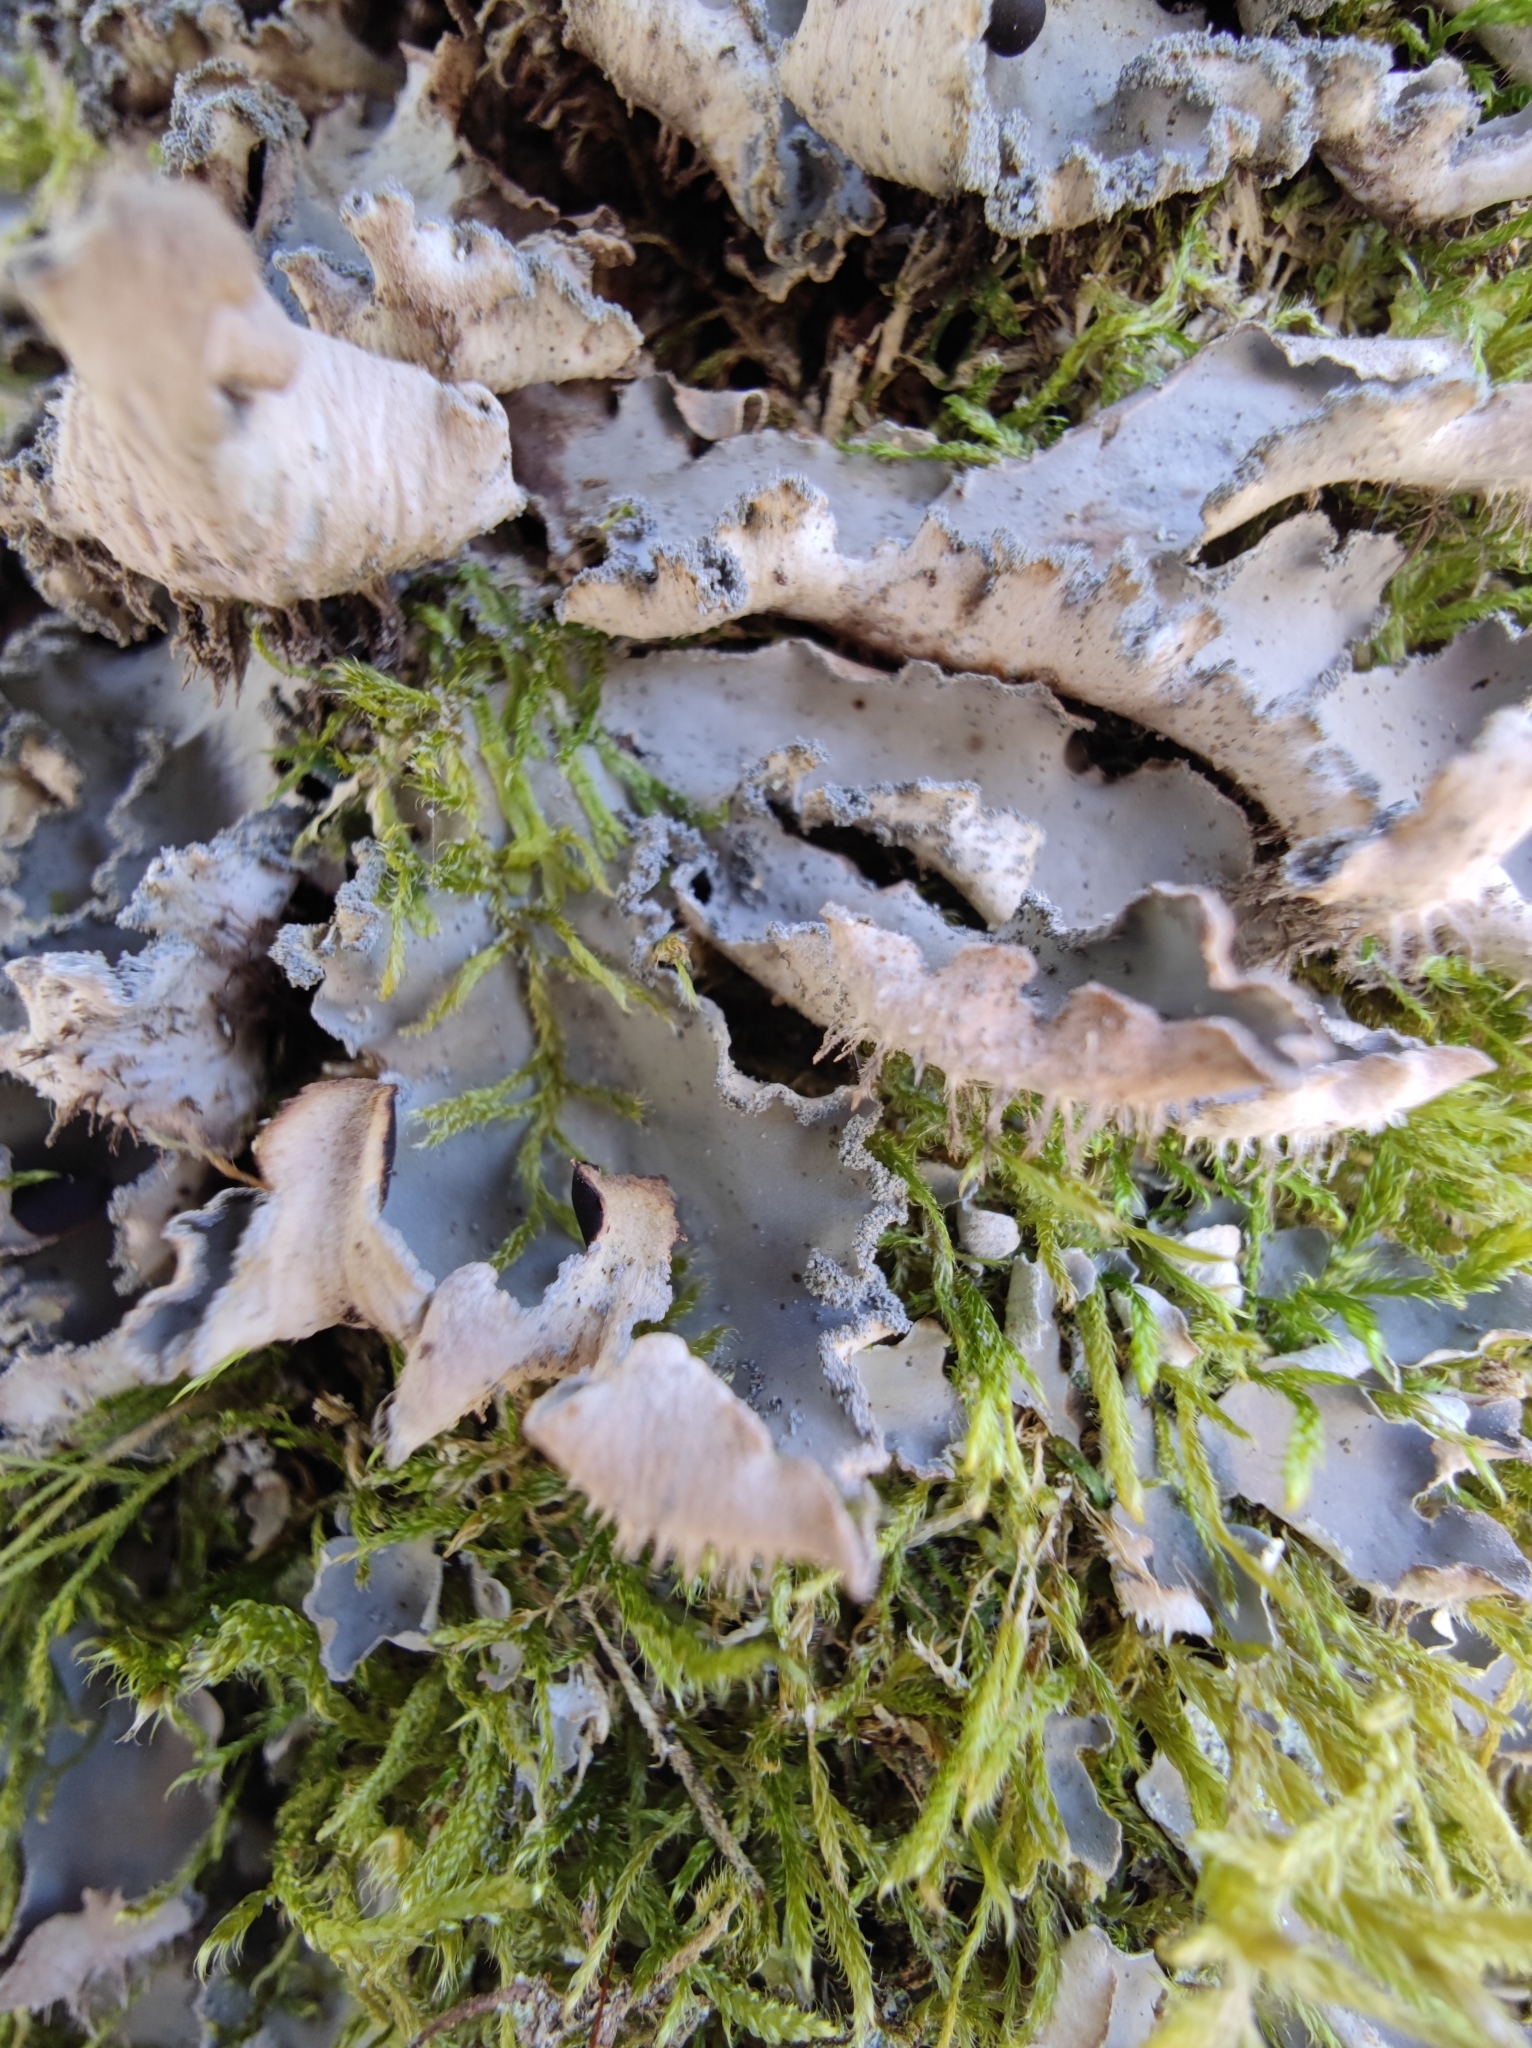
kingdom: Fungi
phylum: Ascomycota
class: Lecanoromycetes
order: Peltigerales
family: Peltigeraceae
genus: Peltigera
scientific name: Peltigera praetextata
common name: Scaly dog-lichen
